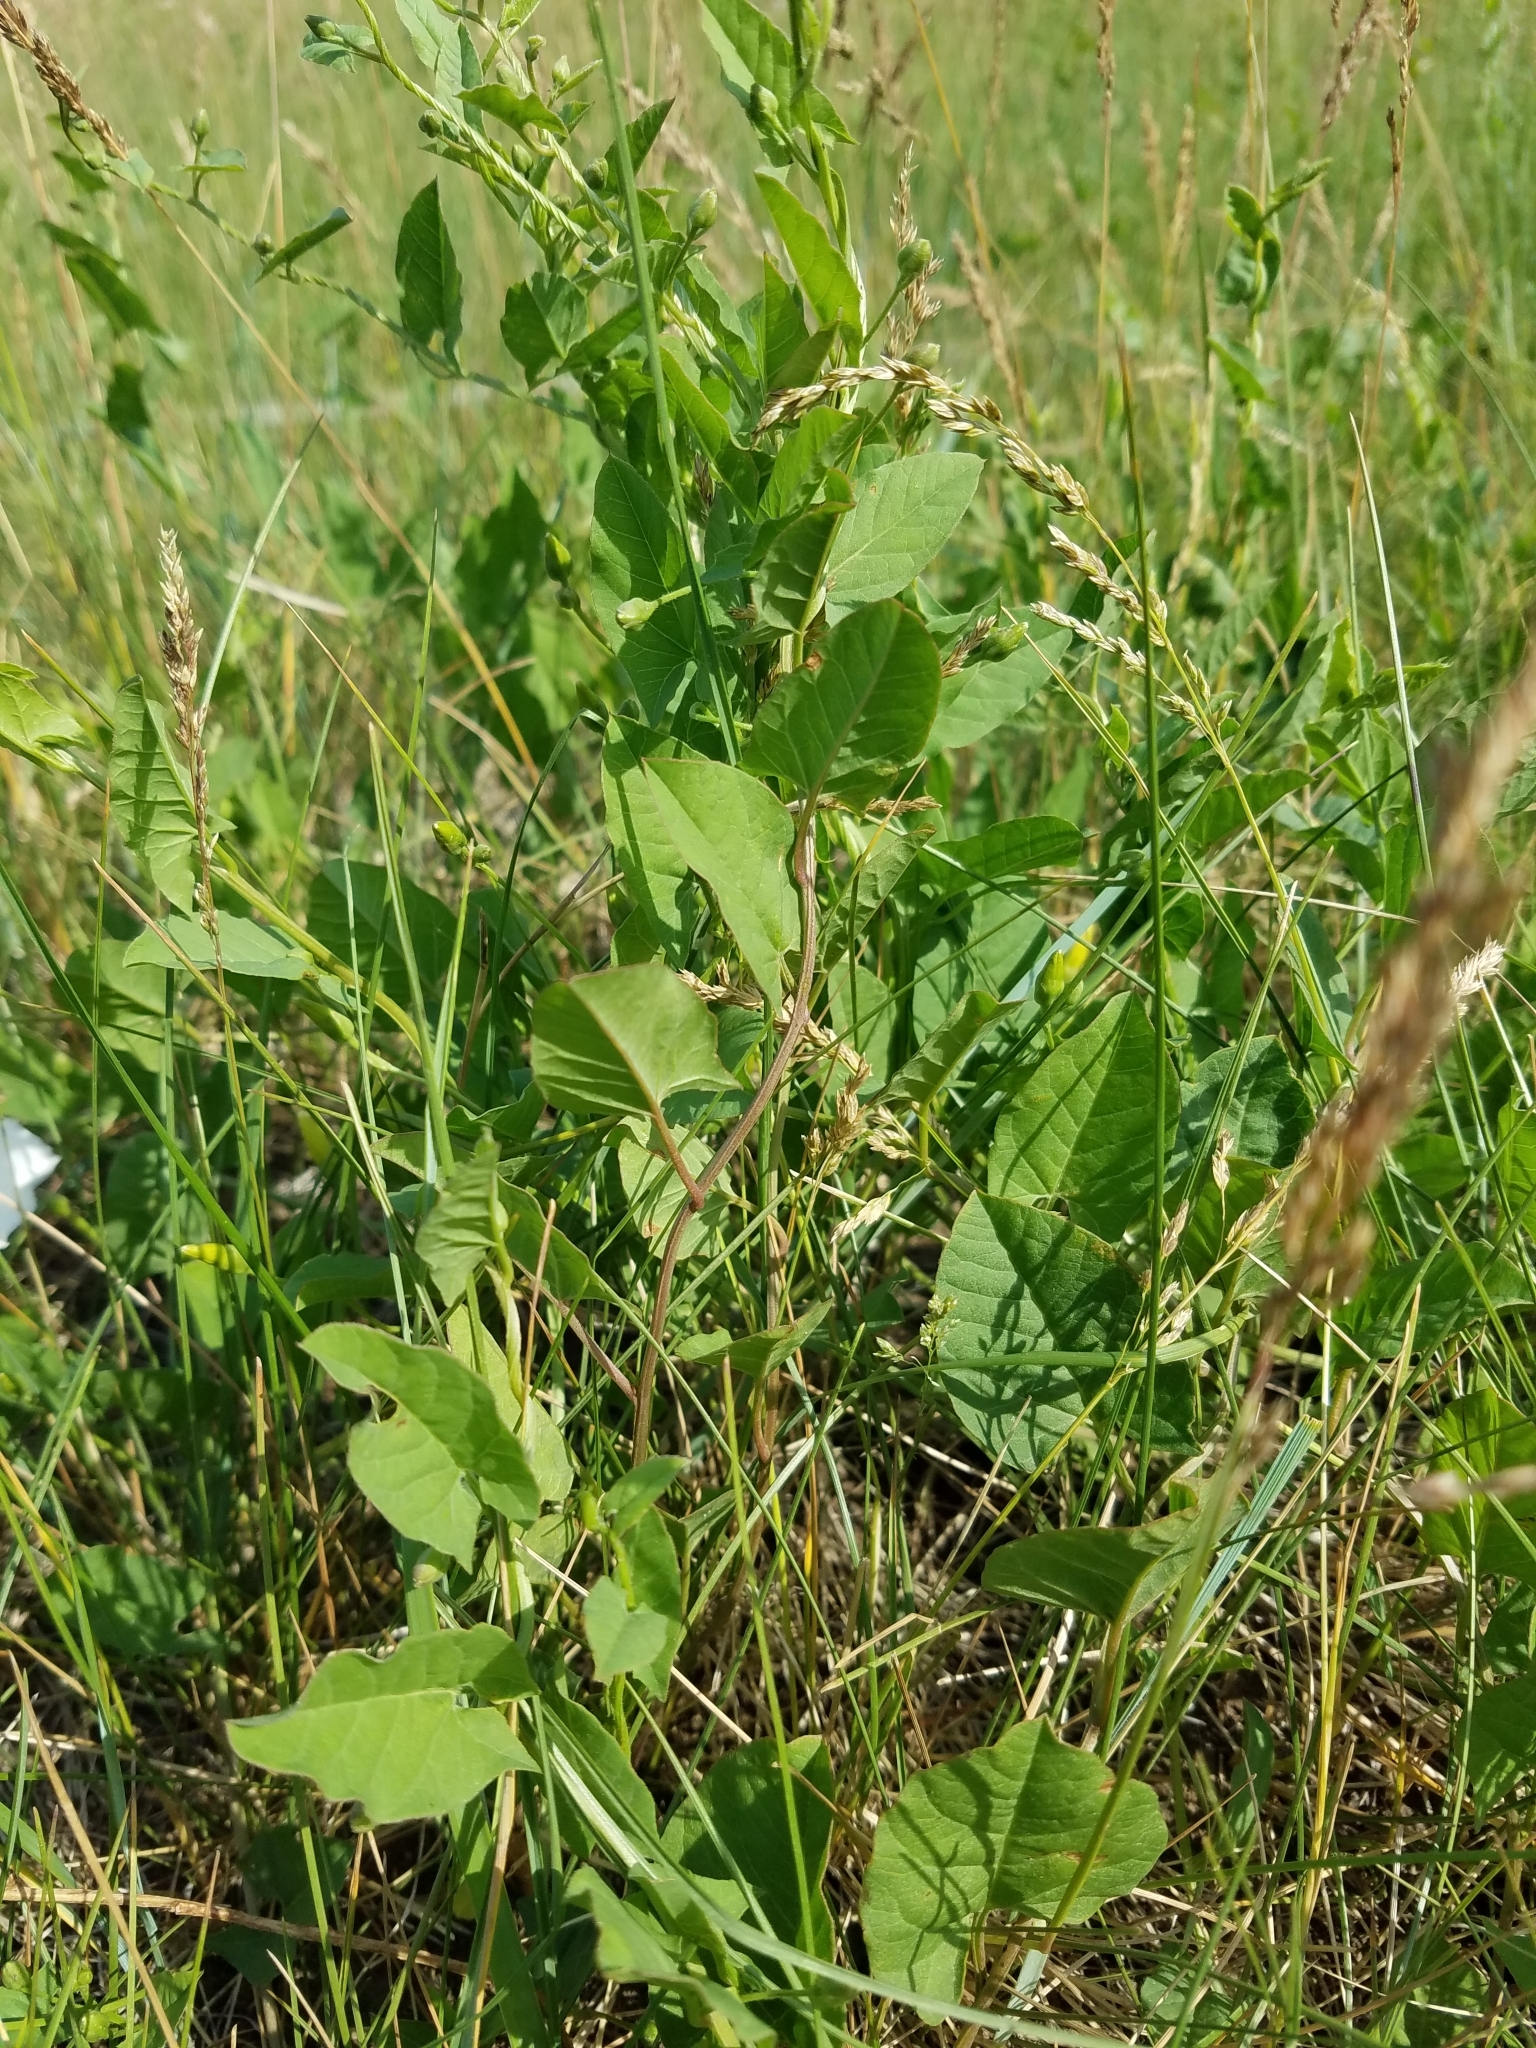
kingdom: Plantae
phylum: Tracheophyta
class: Magnoliopsida
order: Solanales
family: Convolvulaceae
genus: Convolvulus
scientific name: Convolvulus arvensis
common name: Field bindweed
